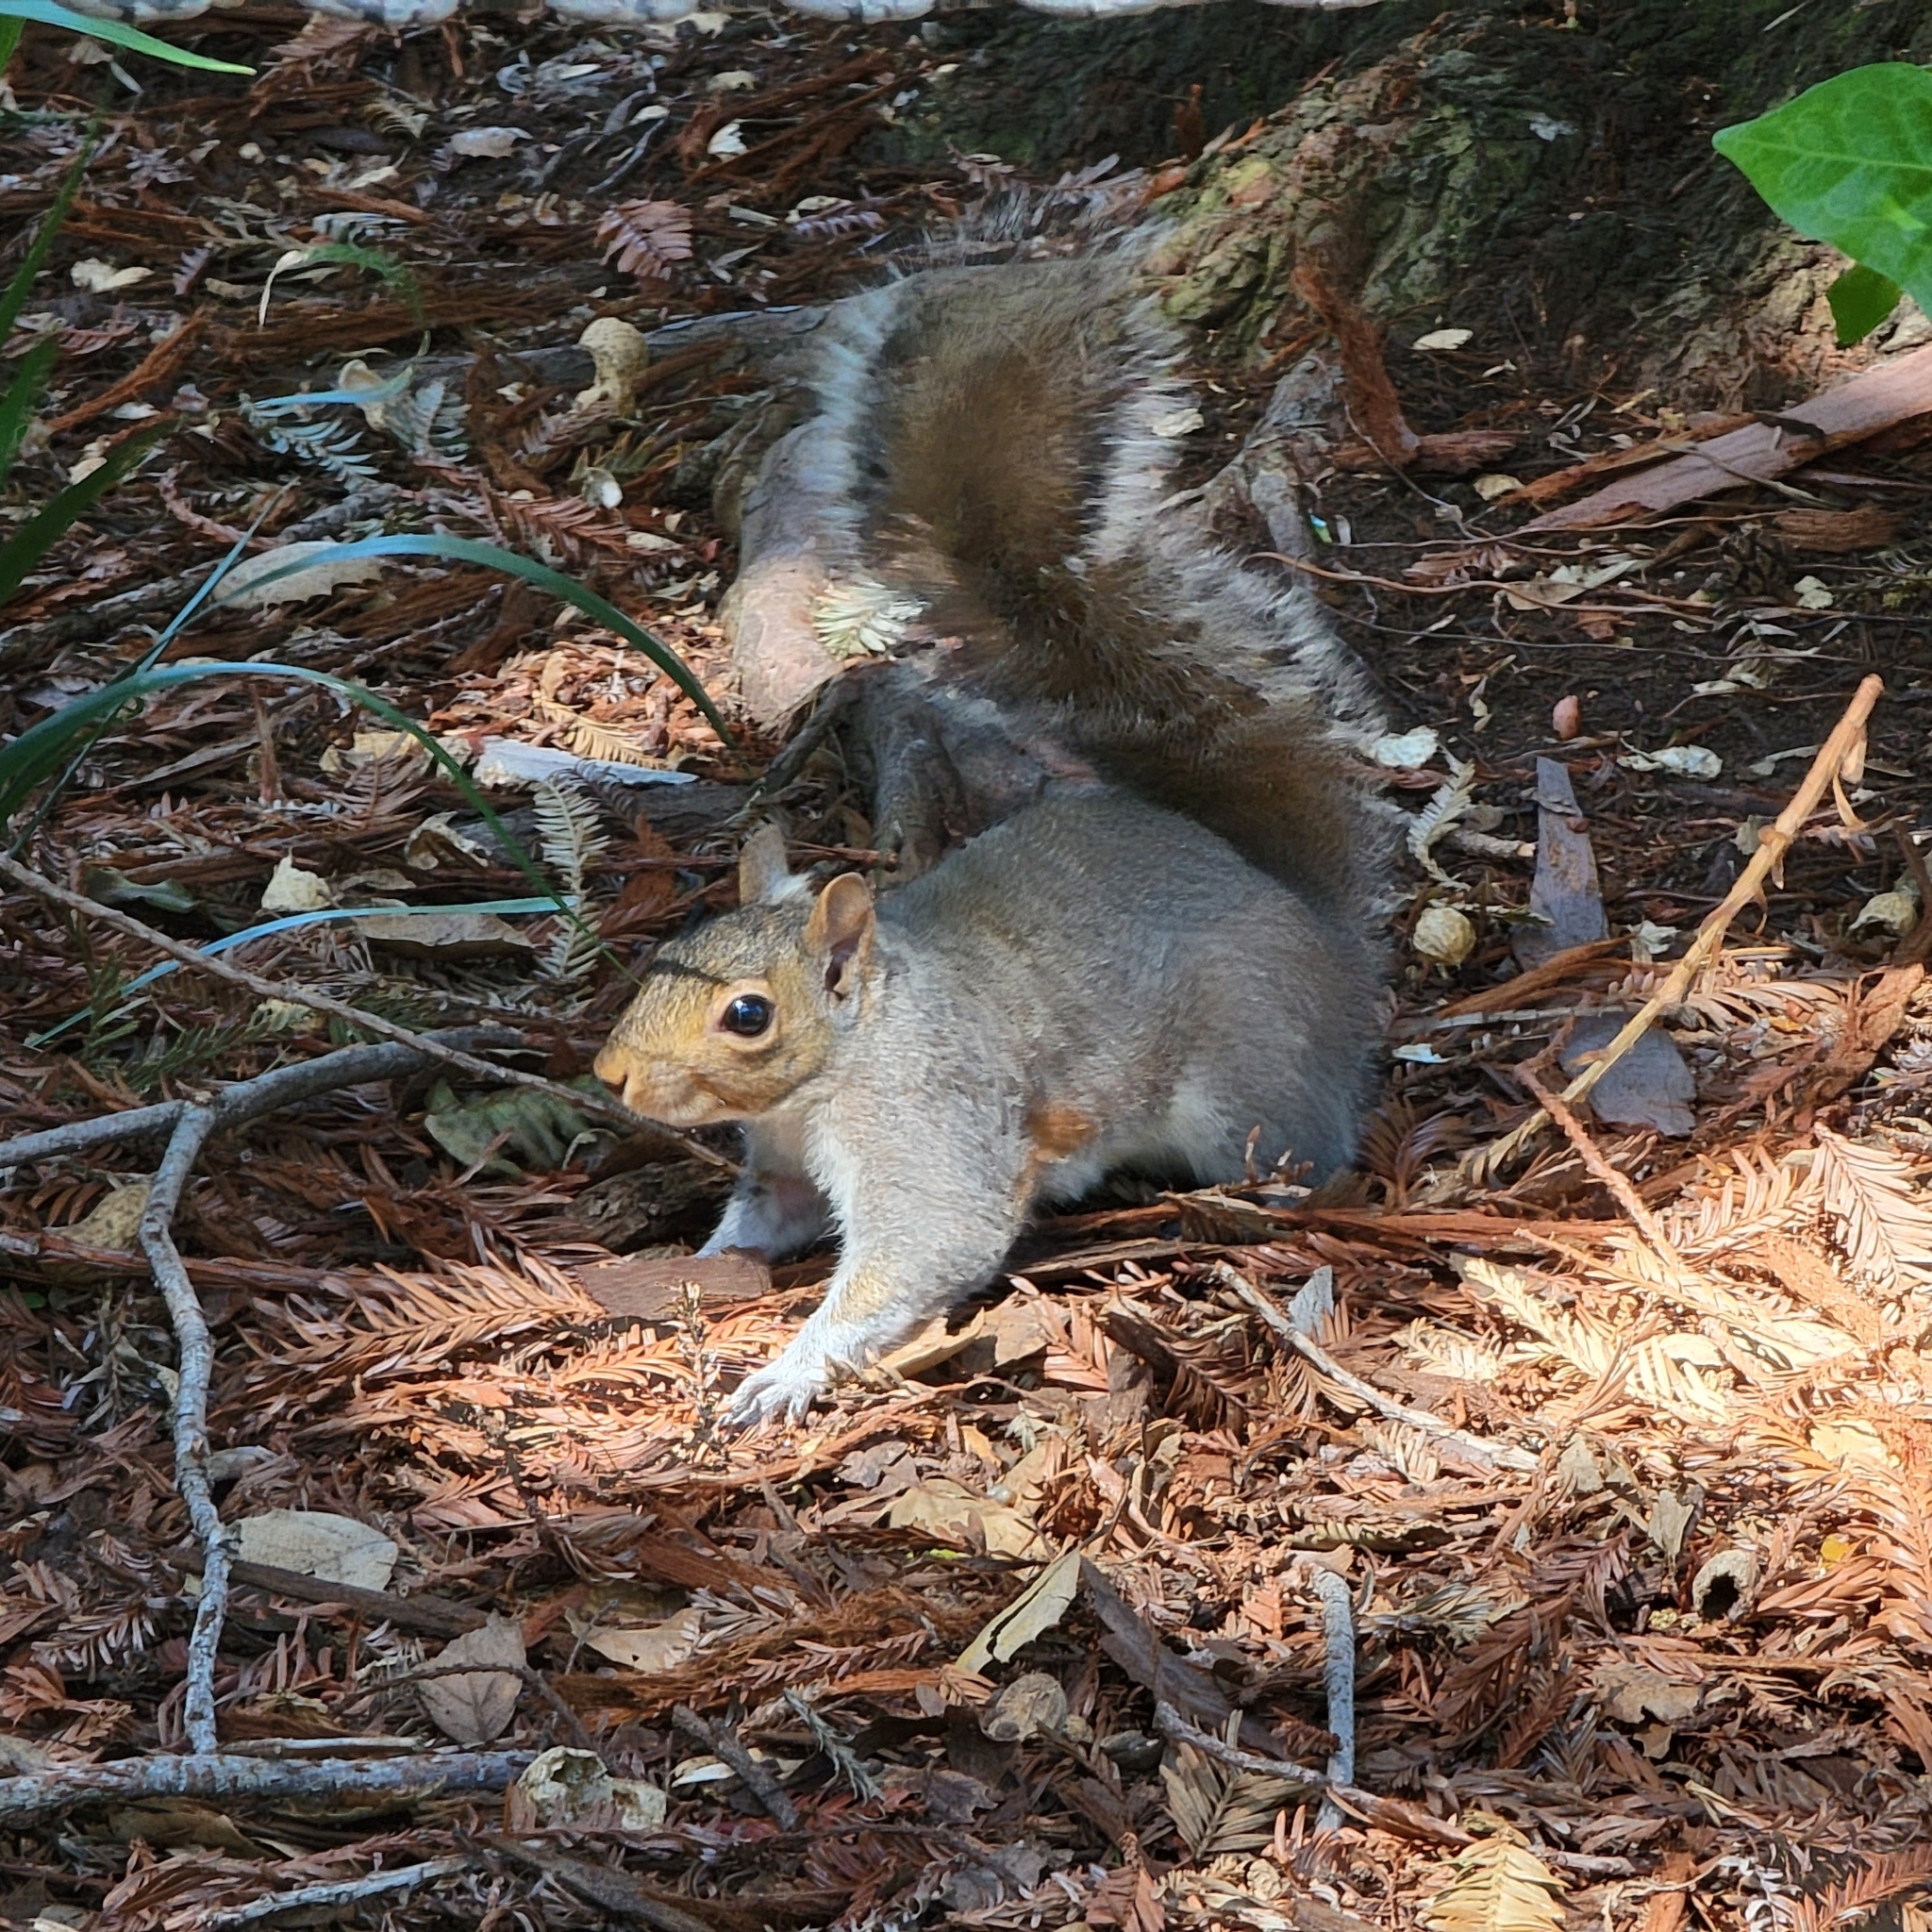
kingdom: Animalia
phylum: Chordata
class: Mammalia
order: Rodentia
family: Sciuridae
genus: Sciurus
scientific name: Sciurus carolinensis
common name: Eastern gray squirrel
